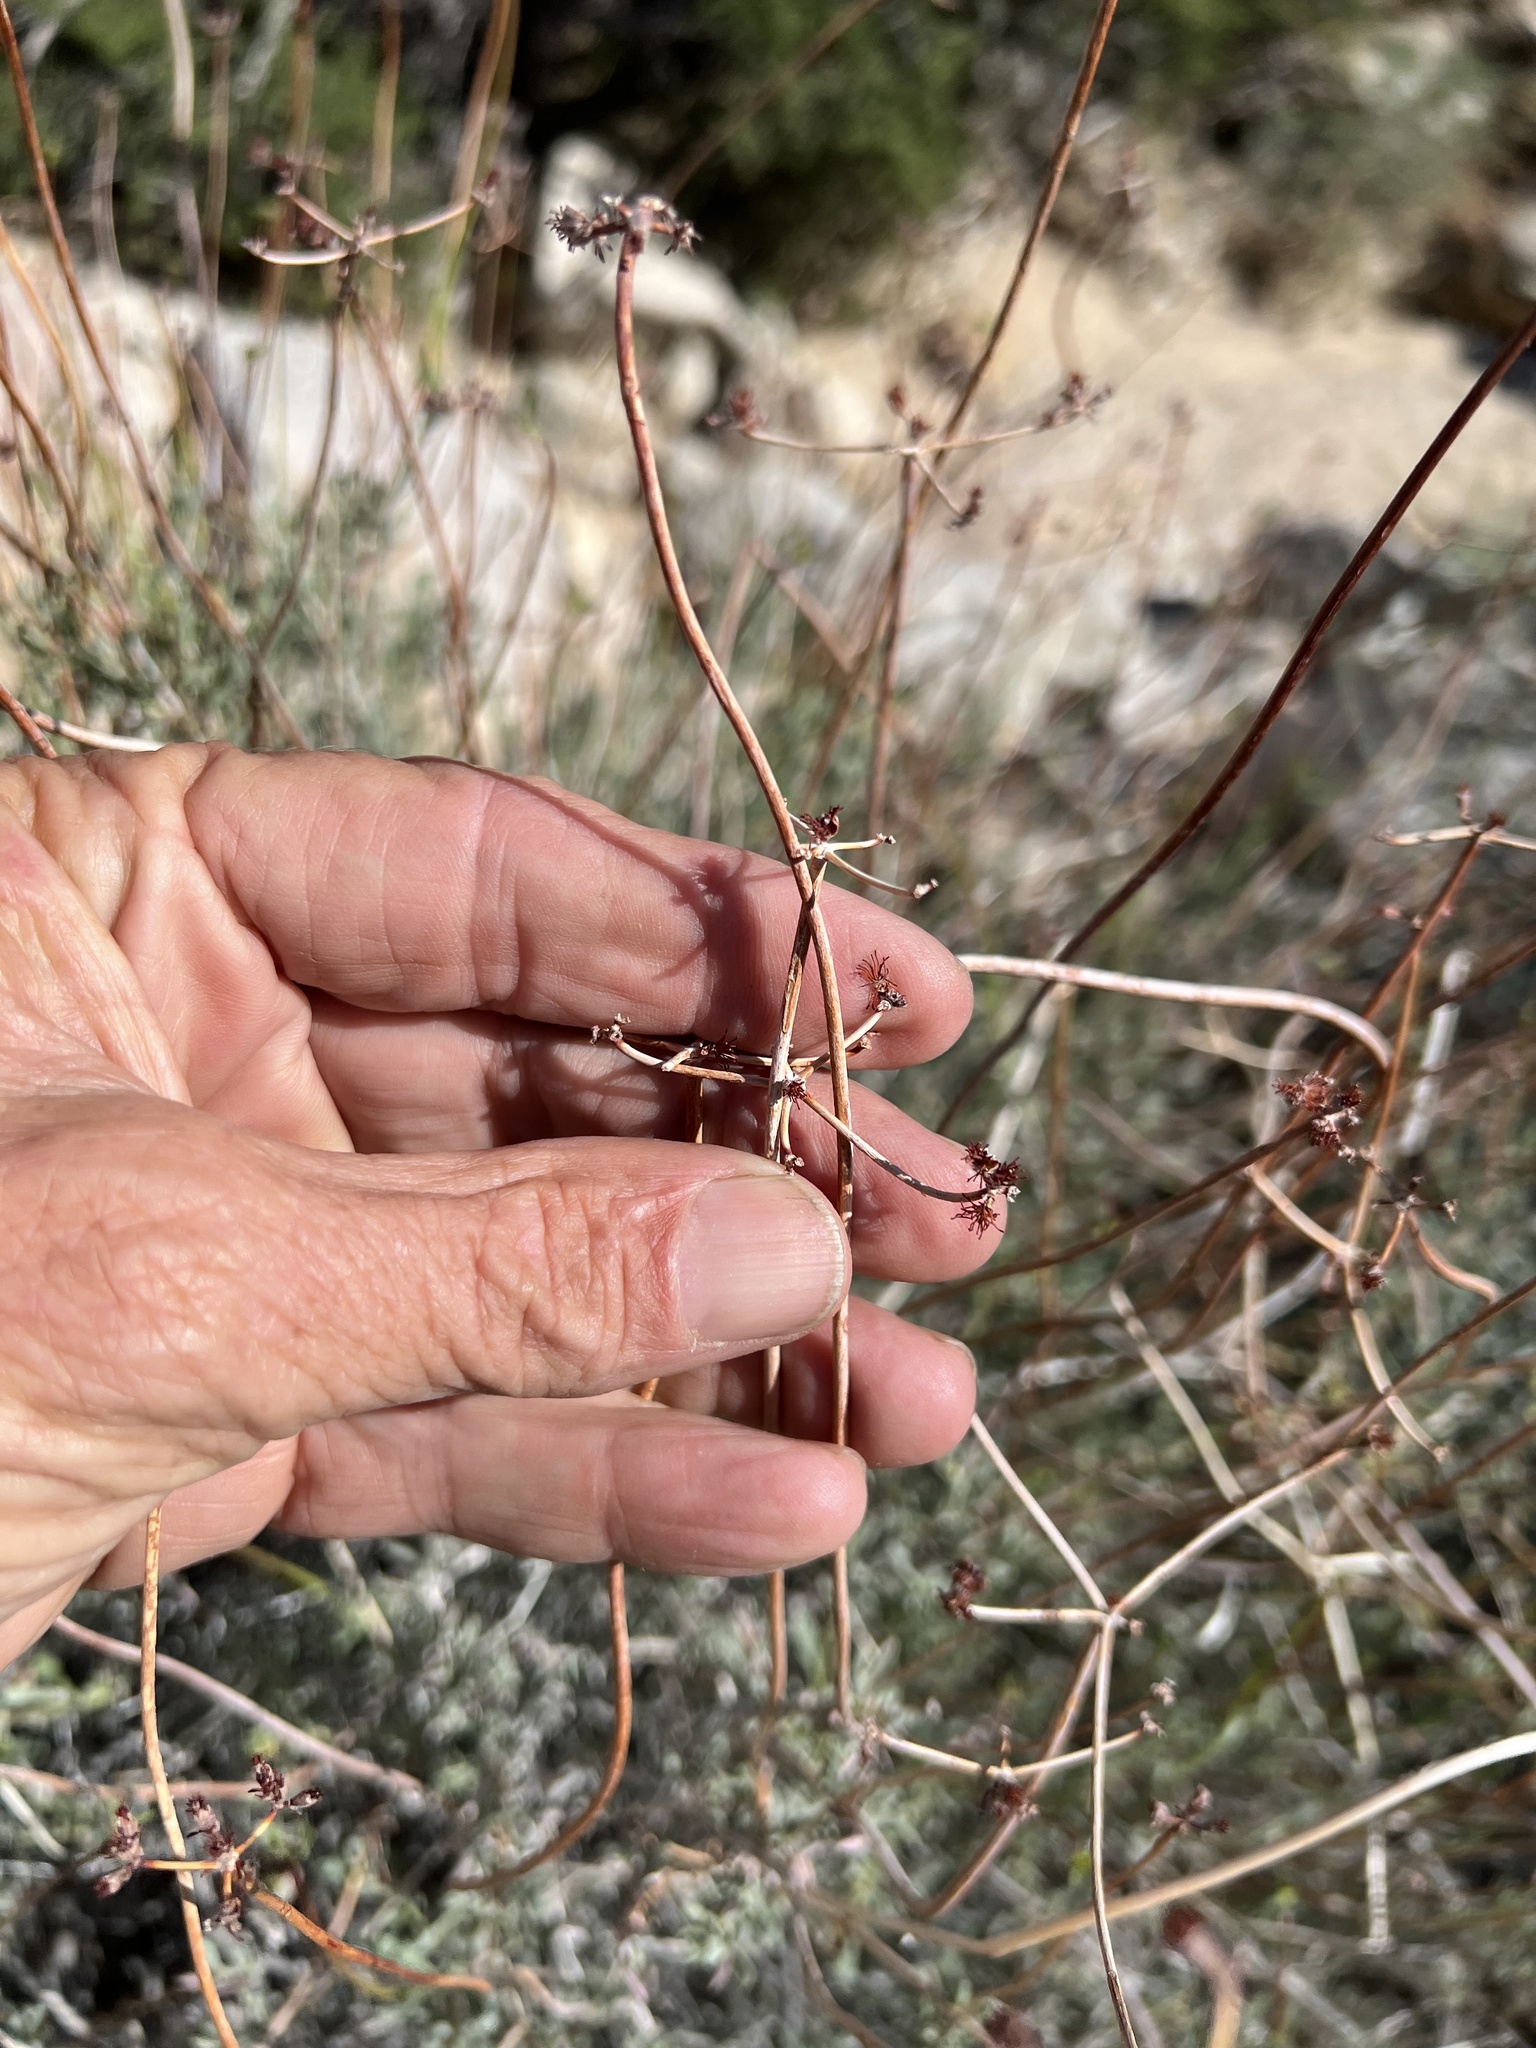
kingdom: Plantae
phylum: Tracheophyta
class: Magnoliopsida
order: Caryophyllales
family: Polygonaceae
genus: Eriogonum
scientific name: Eriogonum fasciculatum
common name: California wild buckwheat
